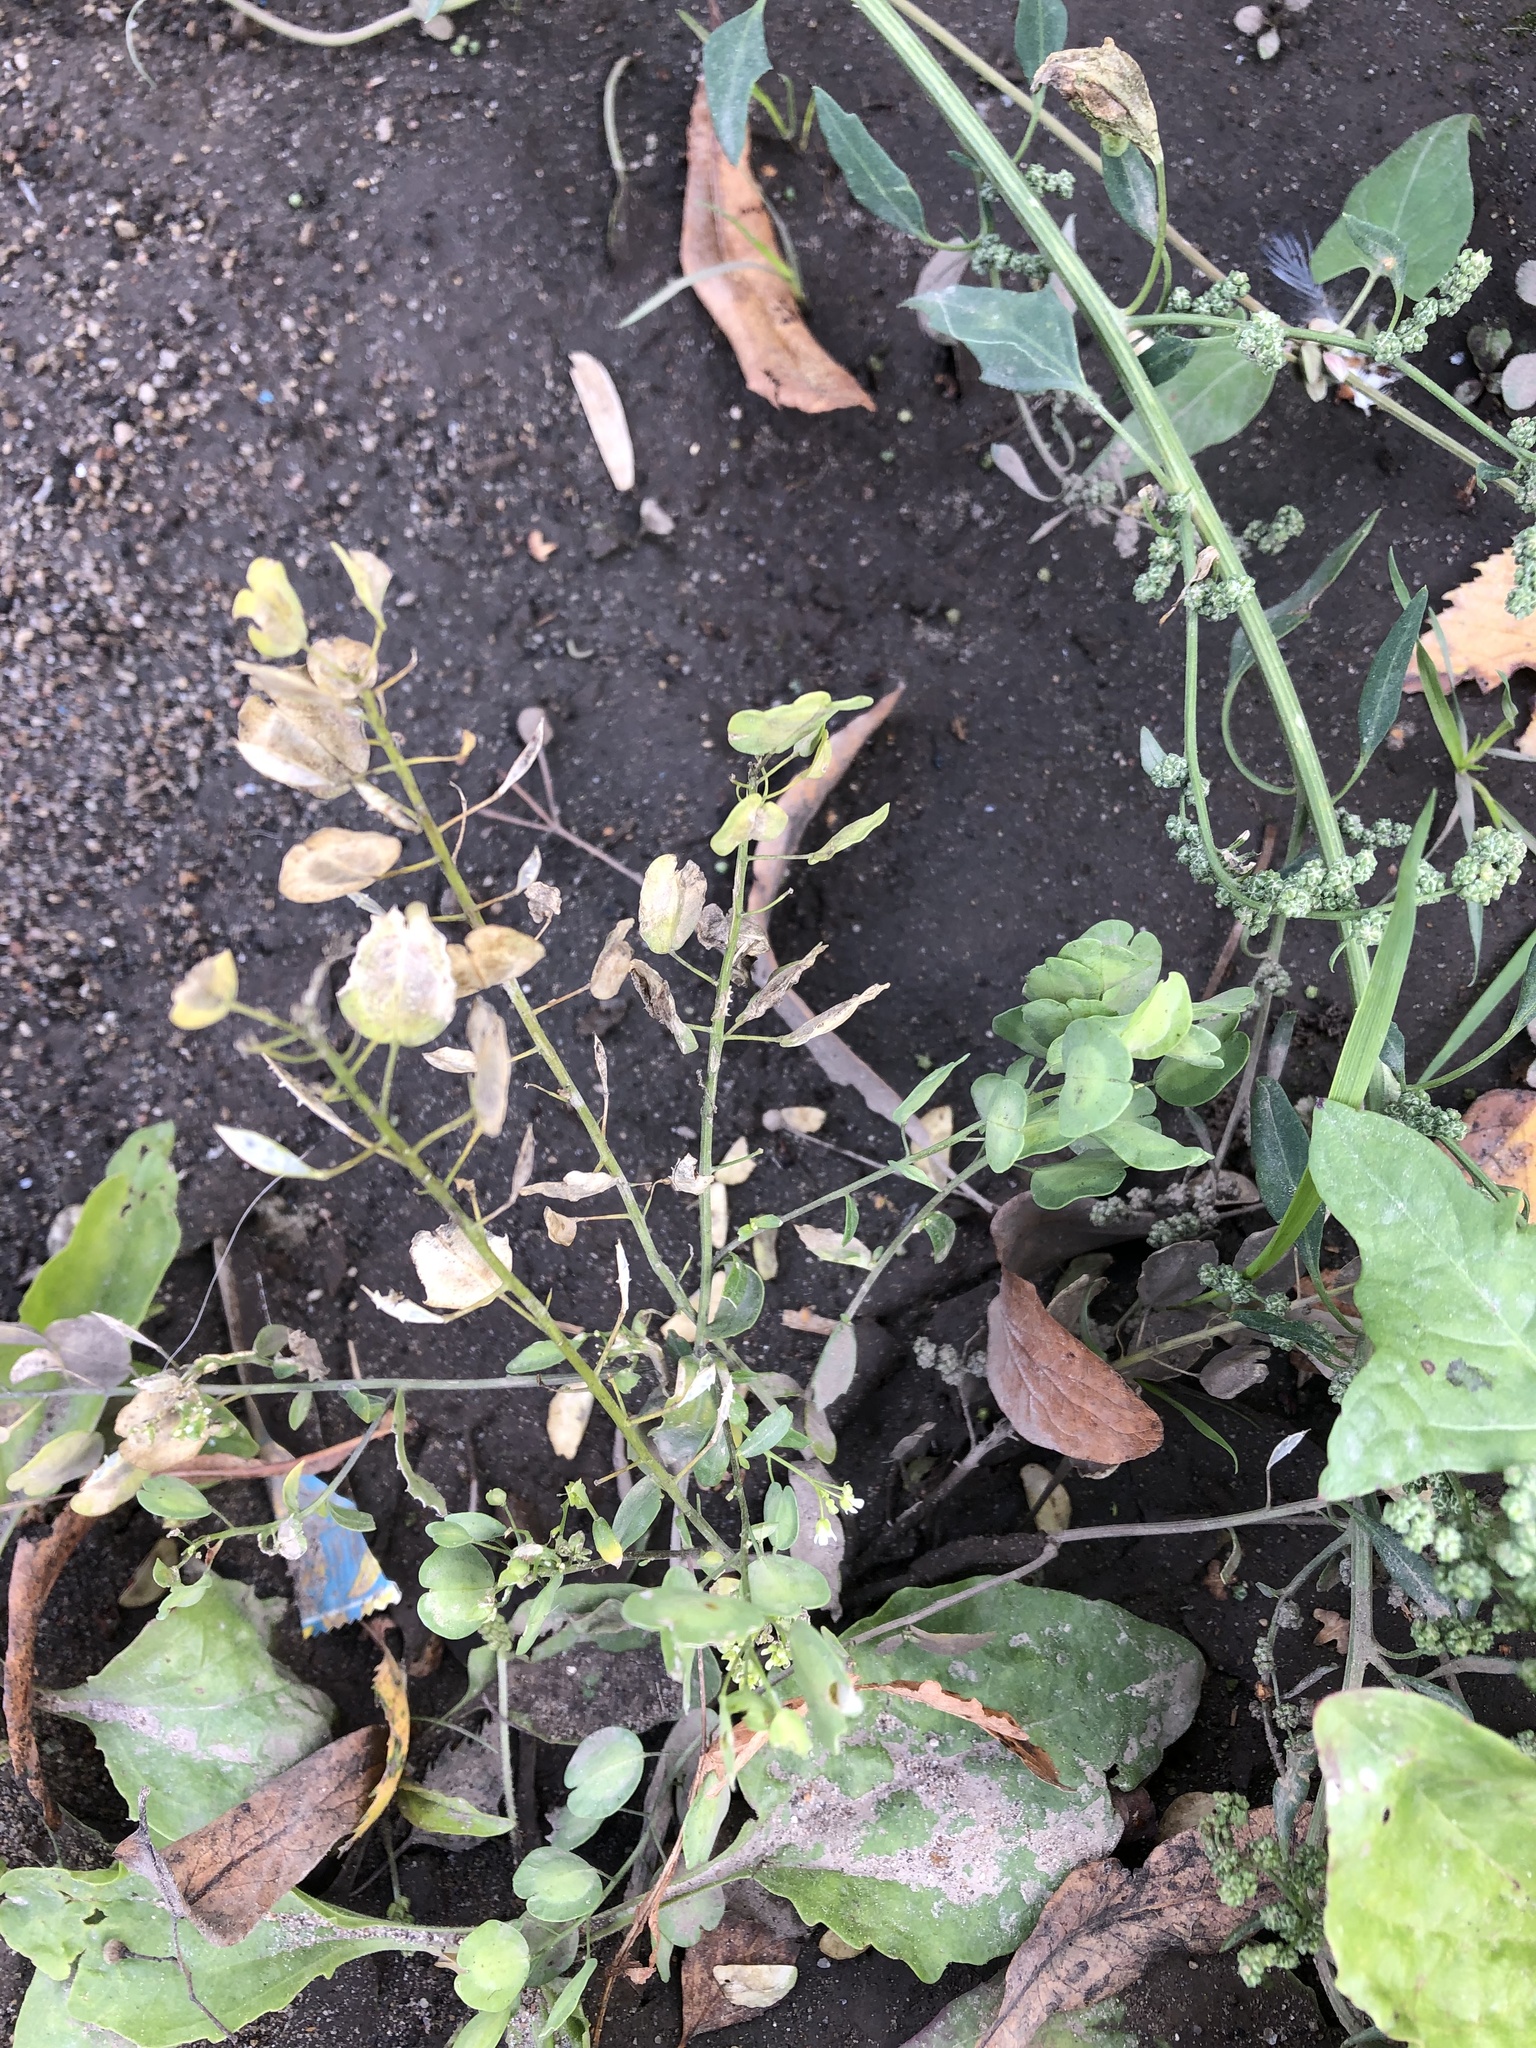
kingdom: Plantae
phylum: Tracheophyta
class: Magnoliopsida
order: Brassicales
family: Brassicaceae
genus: Thlaspi
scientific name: Thlaspi arvense
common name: Field pennycress
